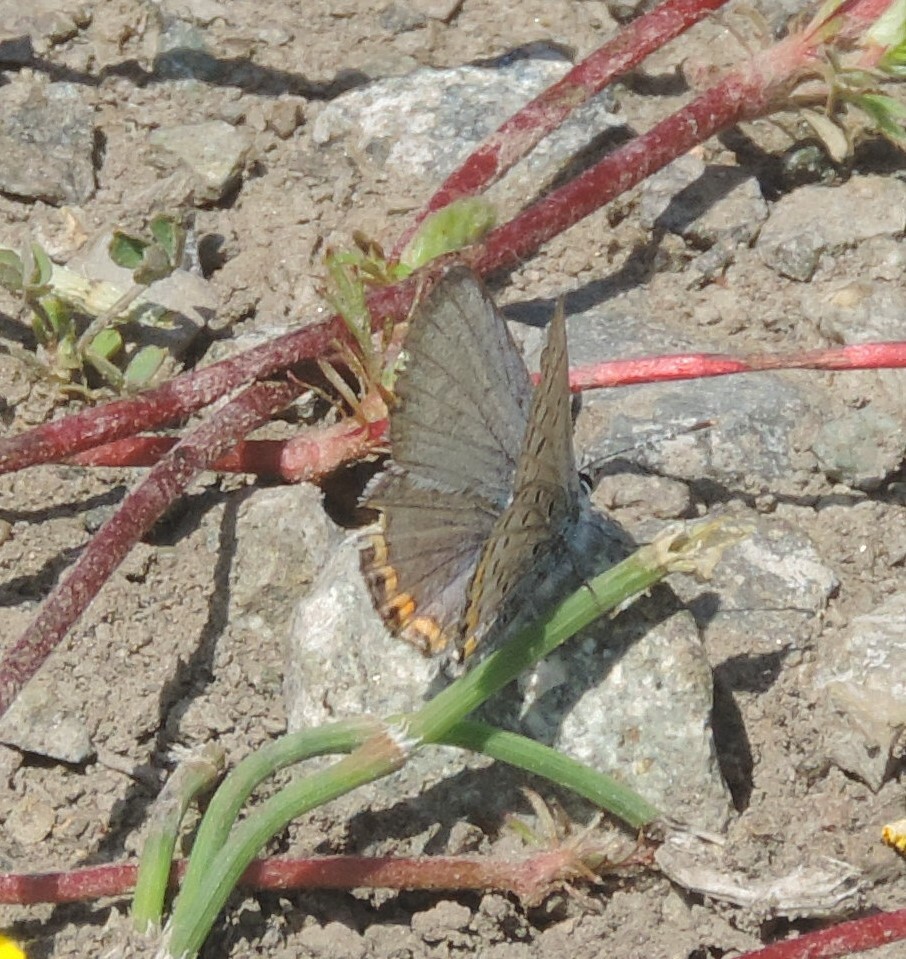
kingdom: Animalia
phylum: Arthropoda
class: Insecta
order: Lepidoptera
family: Lycaenidae
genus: Icaricia
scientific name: Icaricia lupini
